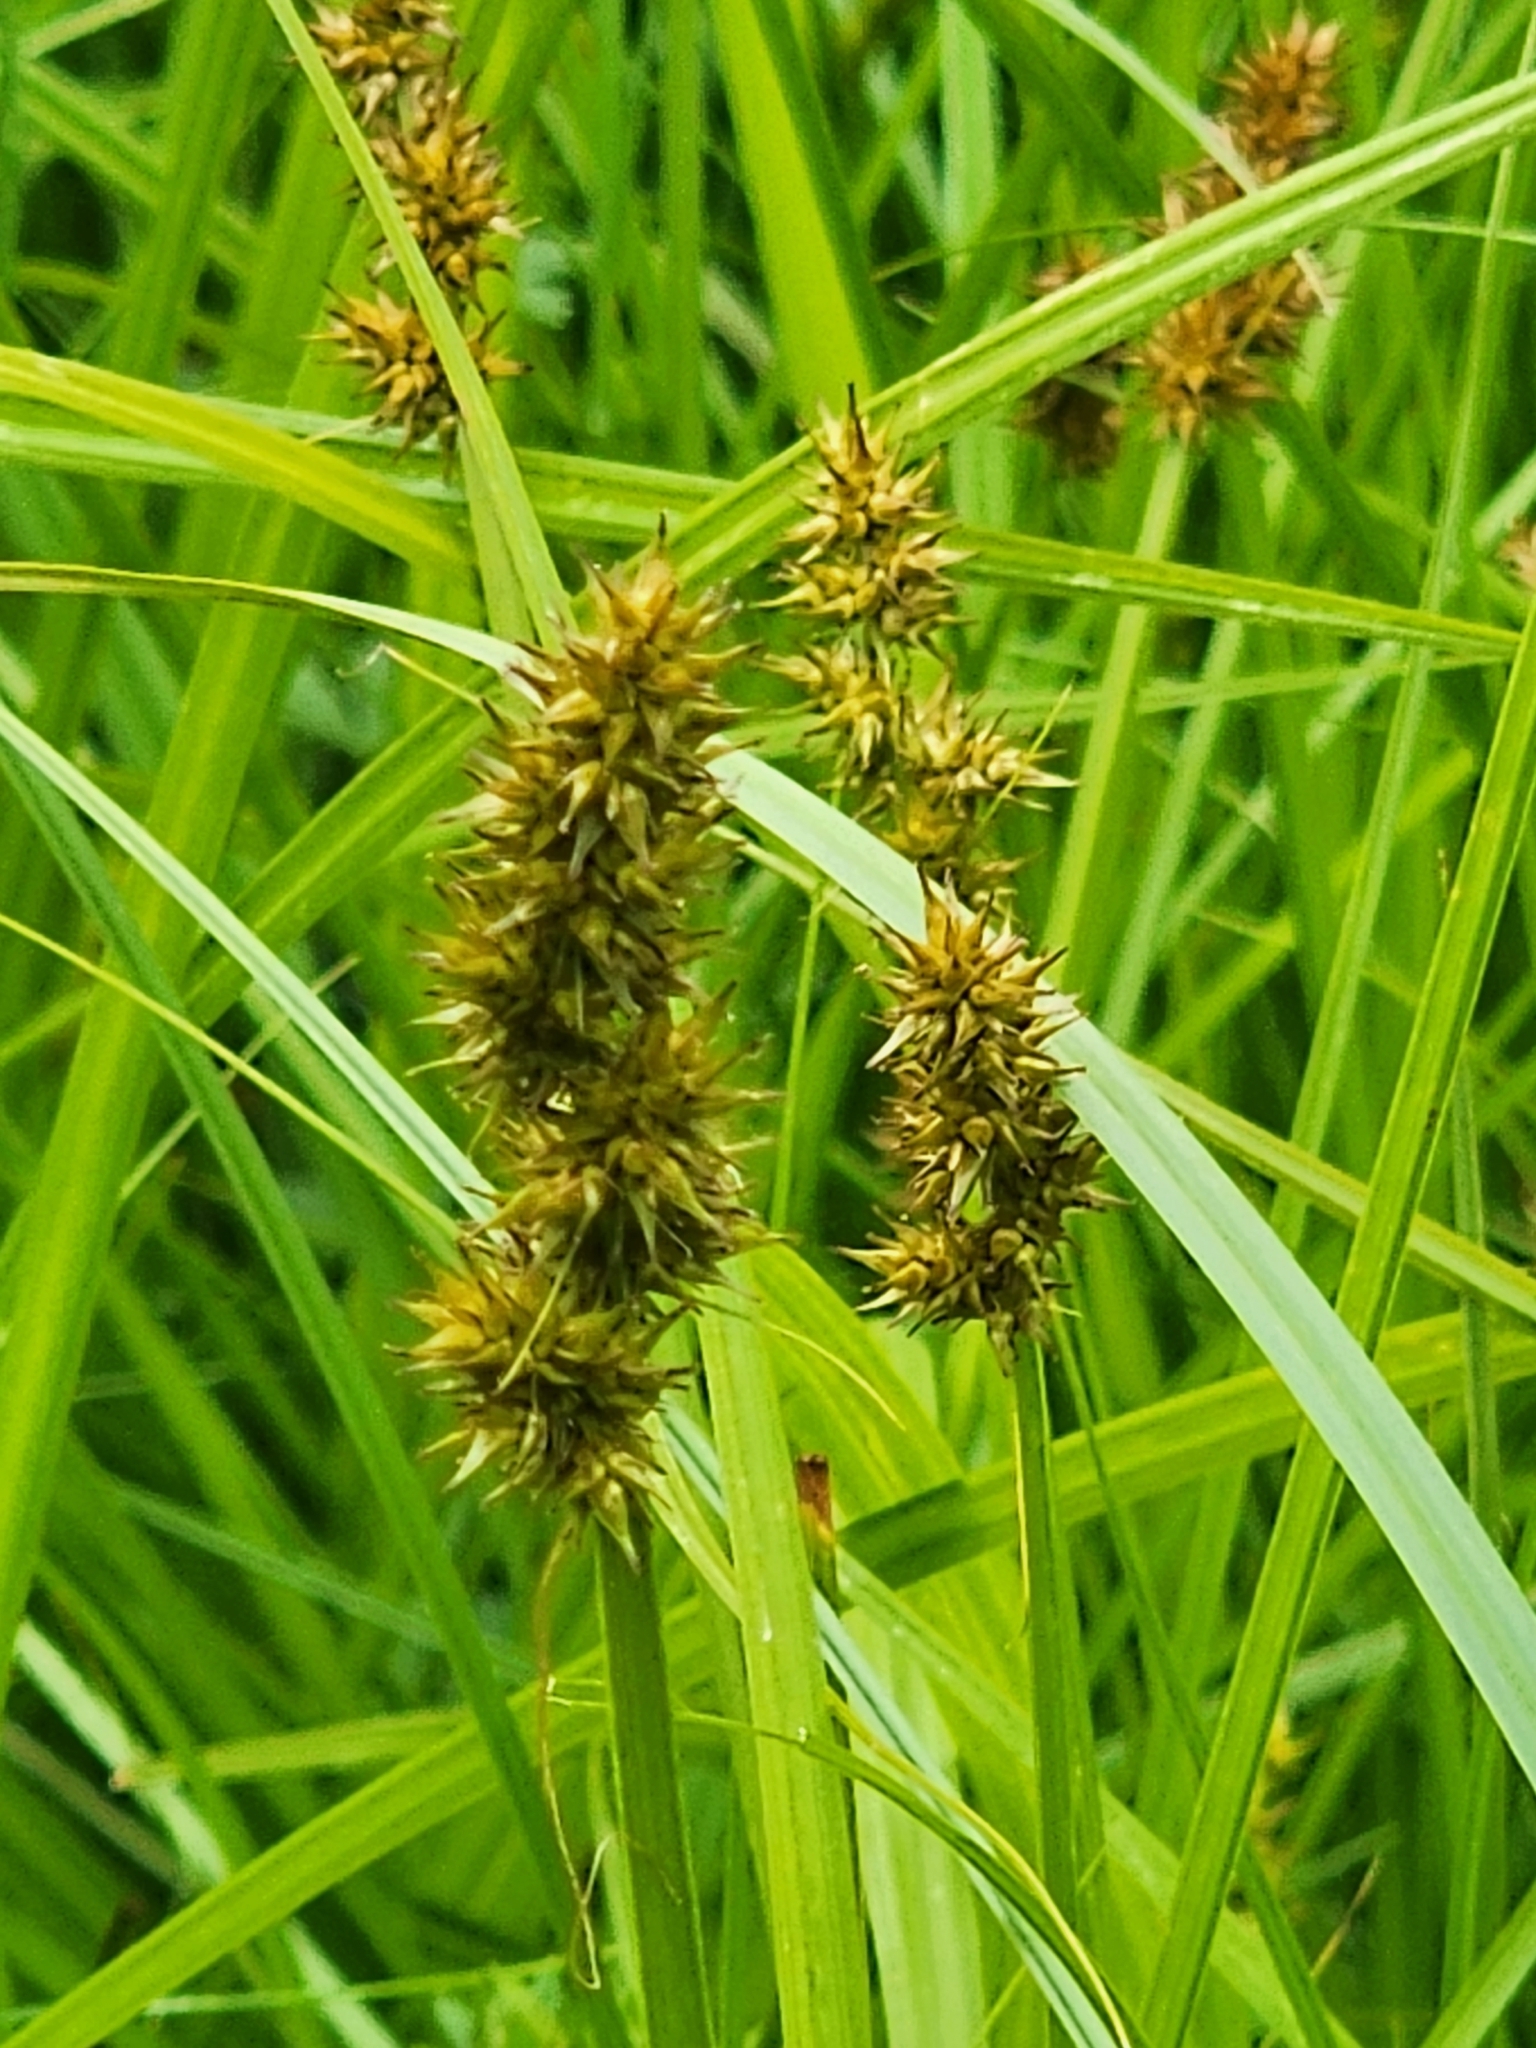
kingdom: Plantae
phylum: Tracheophyta
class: Liliopsida
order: Poales
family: Cyperaceae
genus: Carex
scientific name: Carex stipata
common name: Awl-fruited sedge
